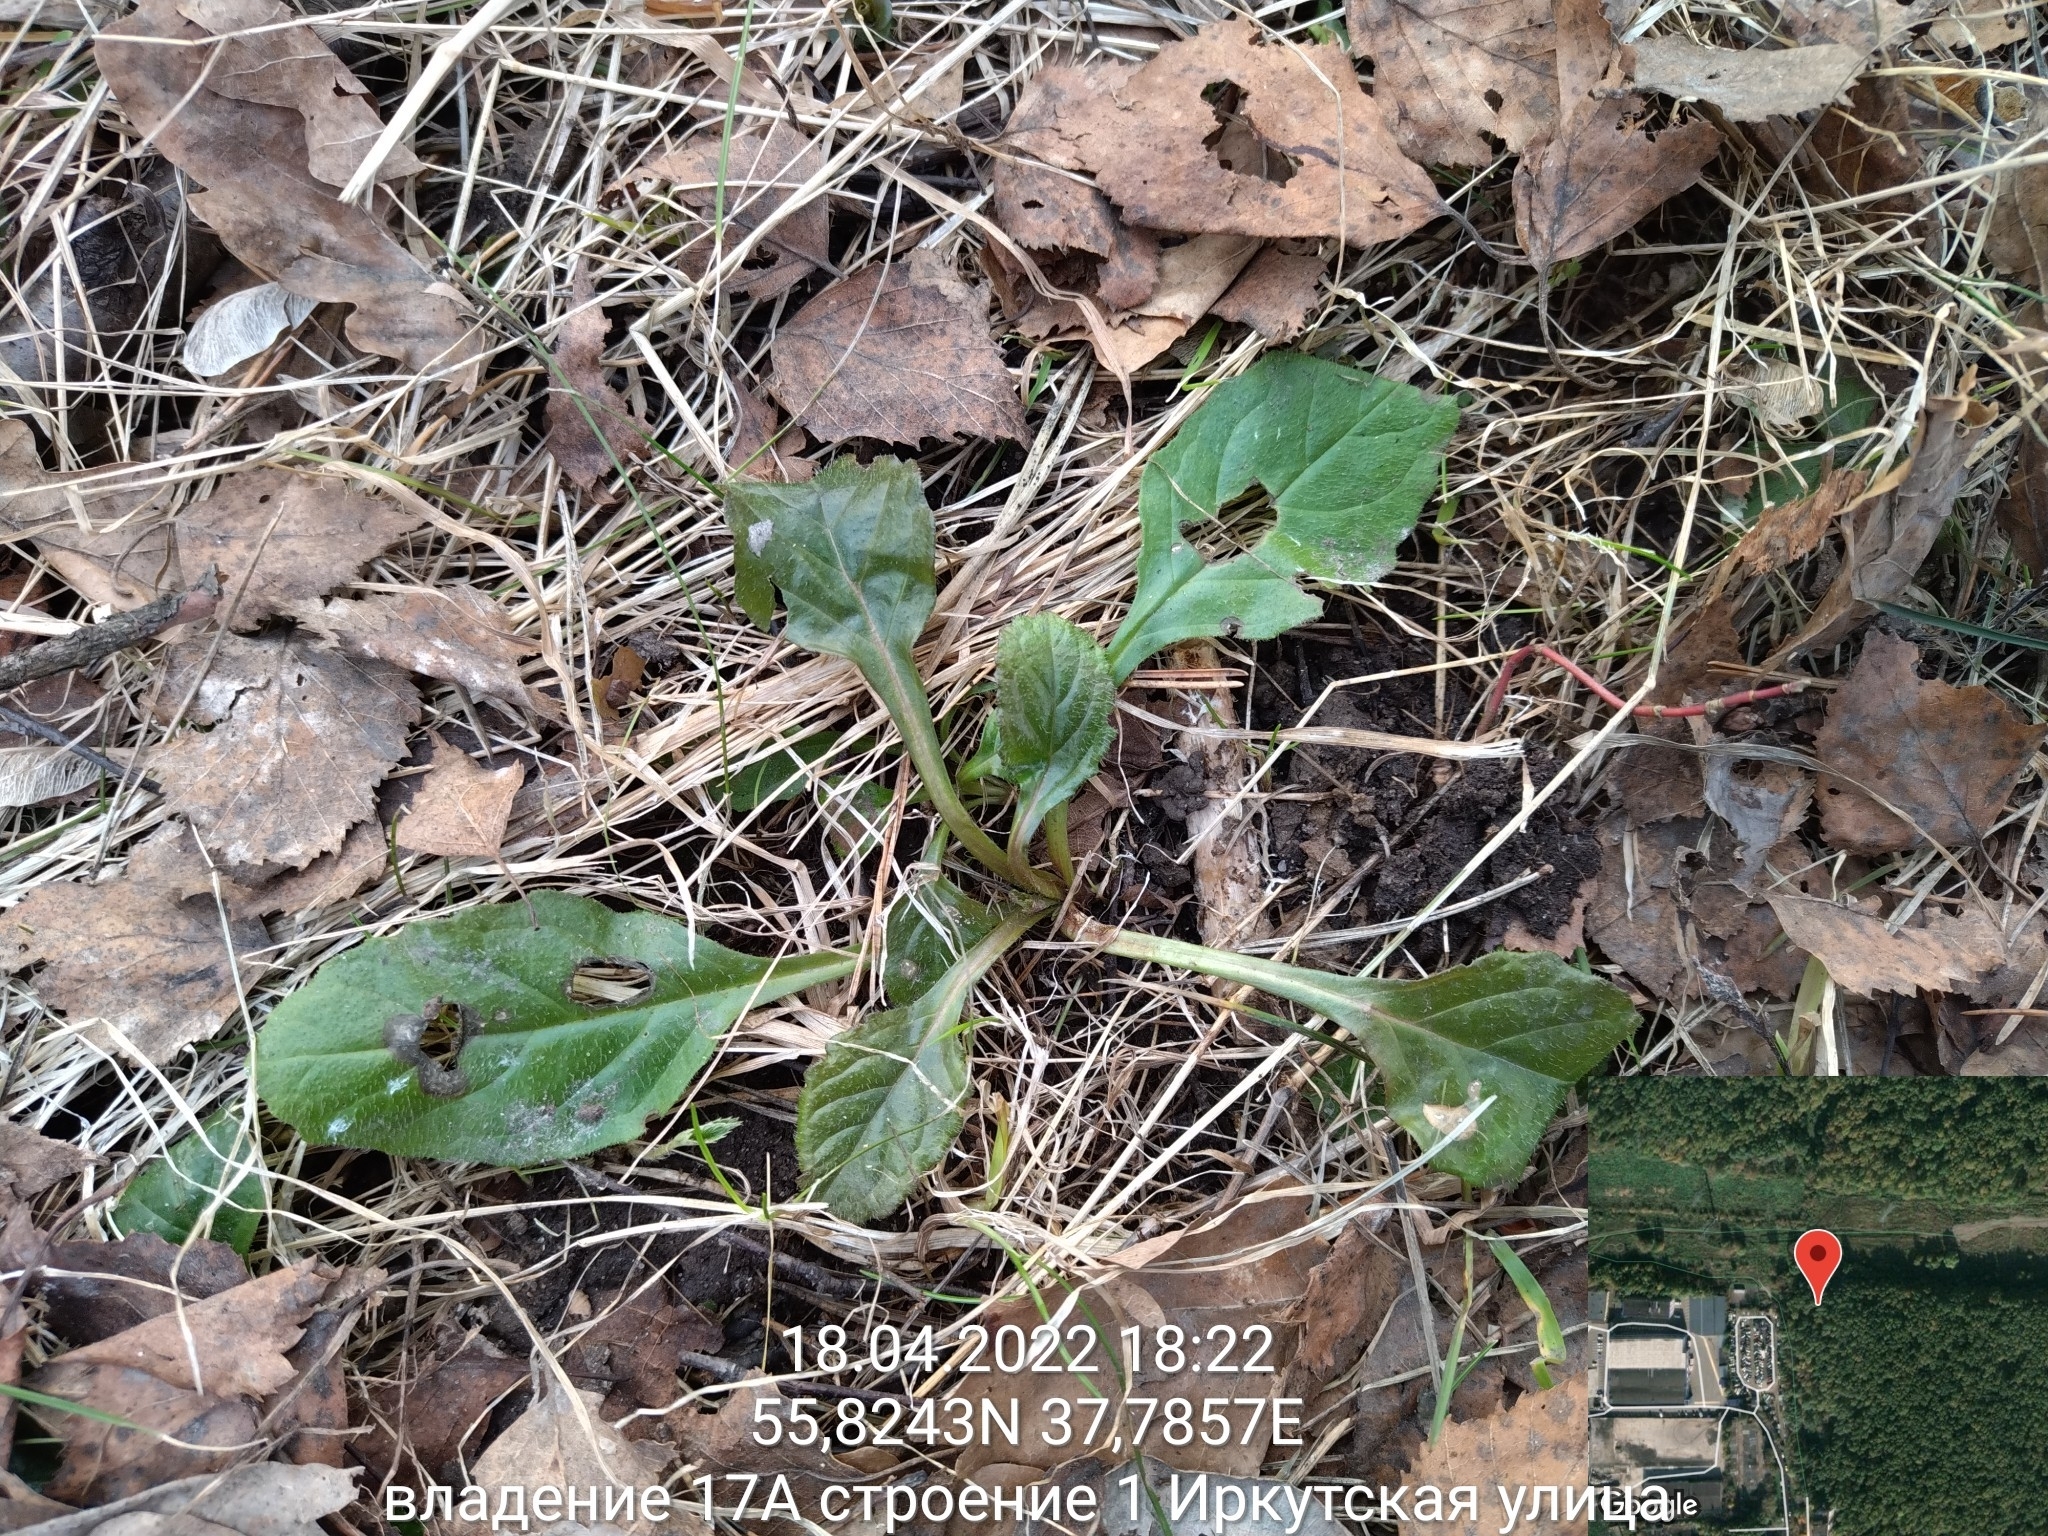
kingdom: Plantae
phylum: Tracheophyta
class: Magnoliopsida
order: Lamiales
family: Lamiaceae
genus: Ajuga
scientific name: Ajuga reptans
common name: Bugle
